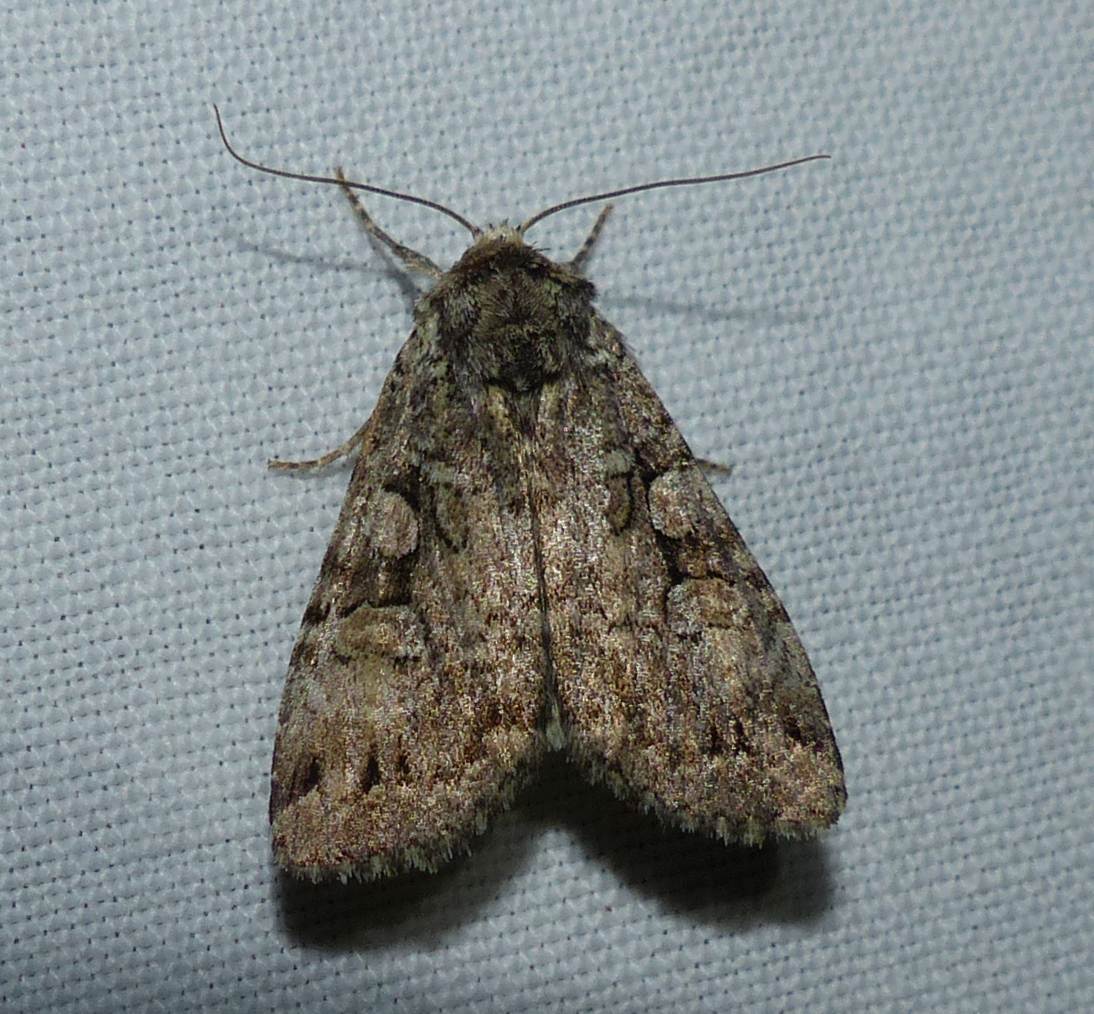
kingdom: Animalia
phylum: Arthropoda
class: Insecta
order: Lepidoptera
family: Noctuidae
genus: Anaplectoides
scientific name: Anaplectoides pressus
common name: Dappled dart
